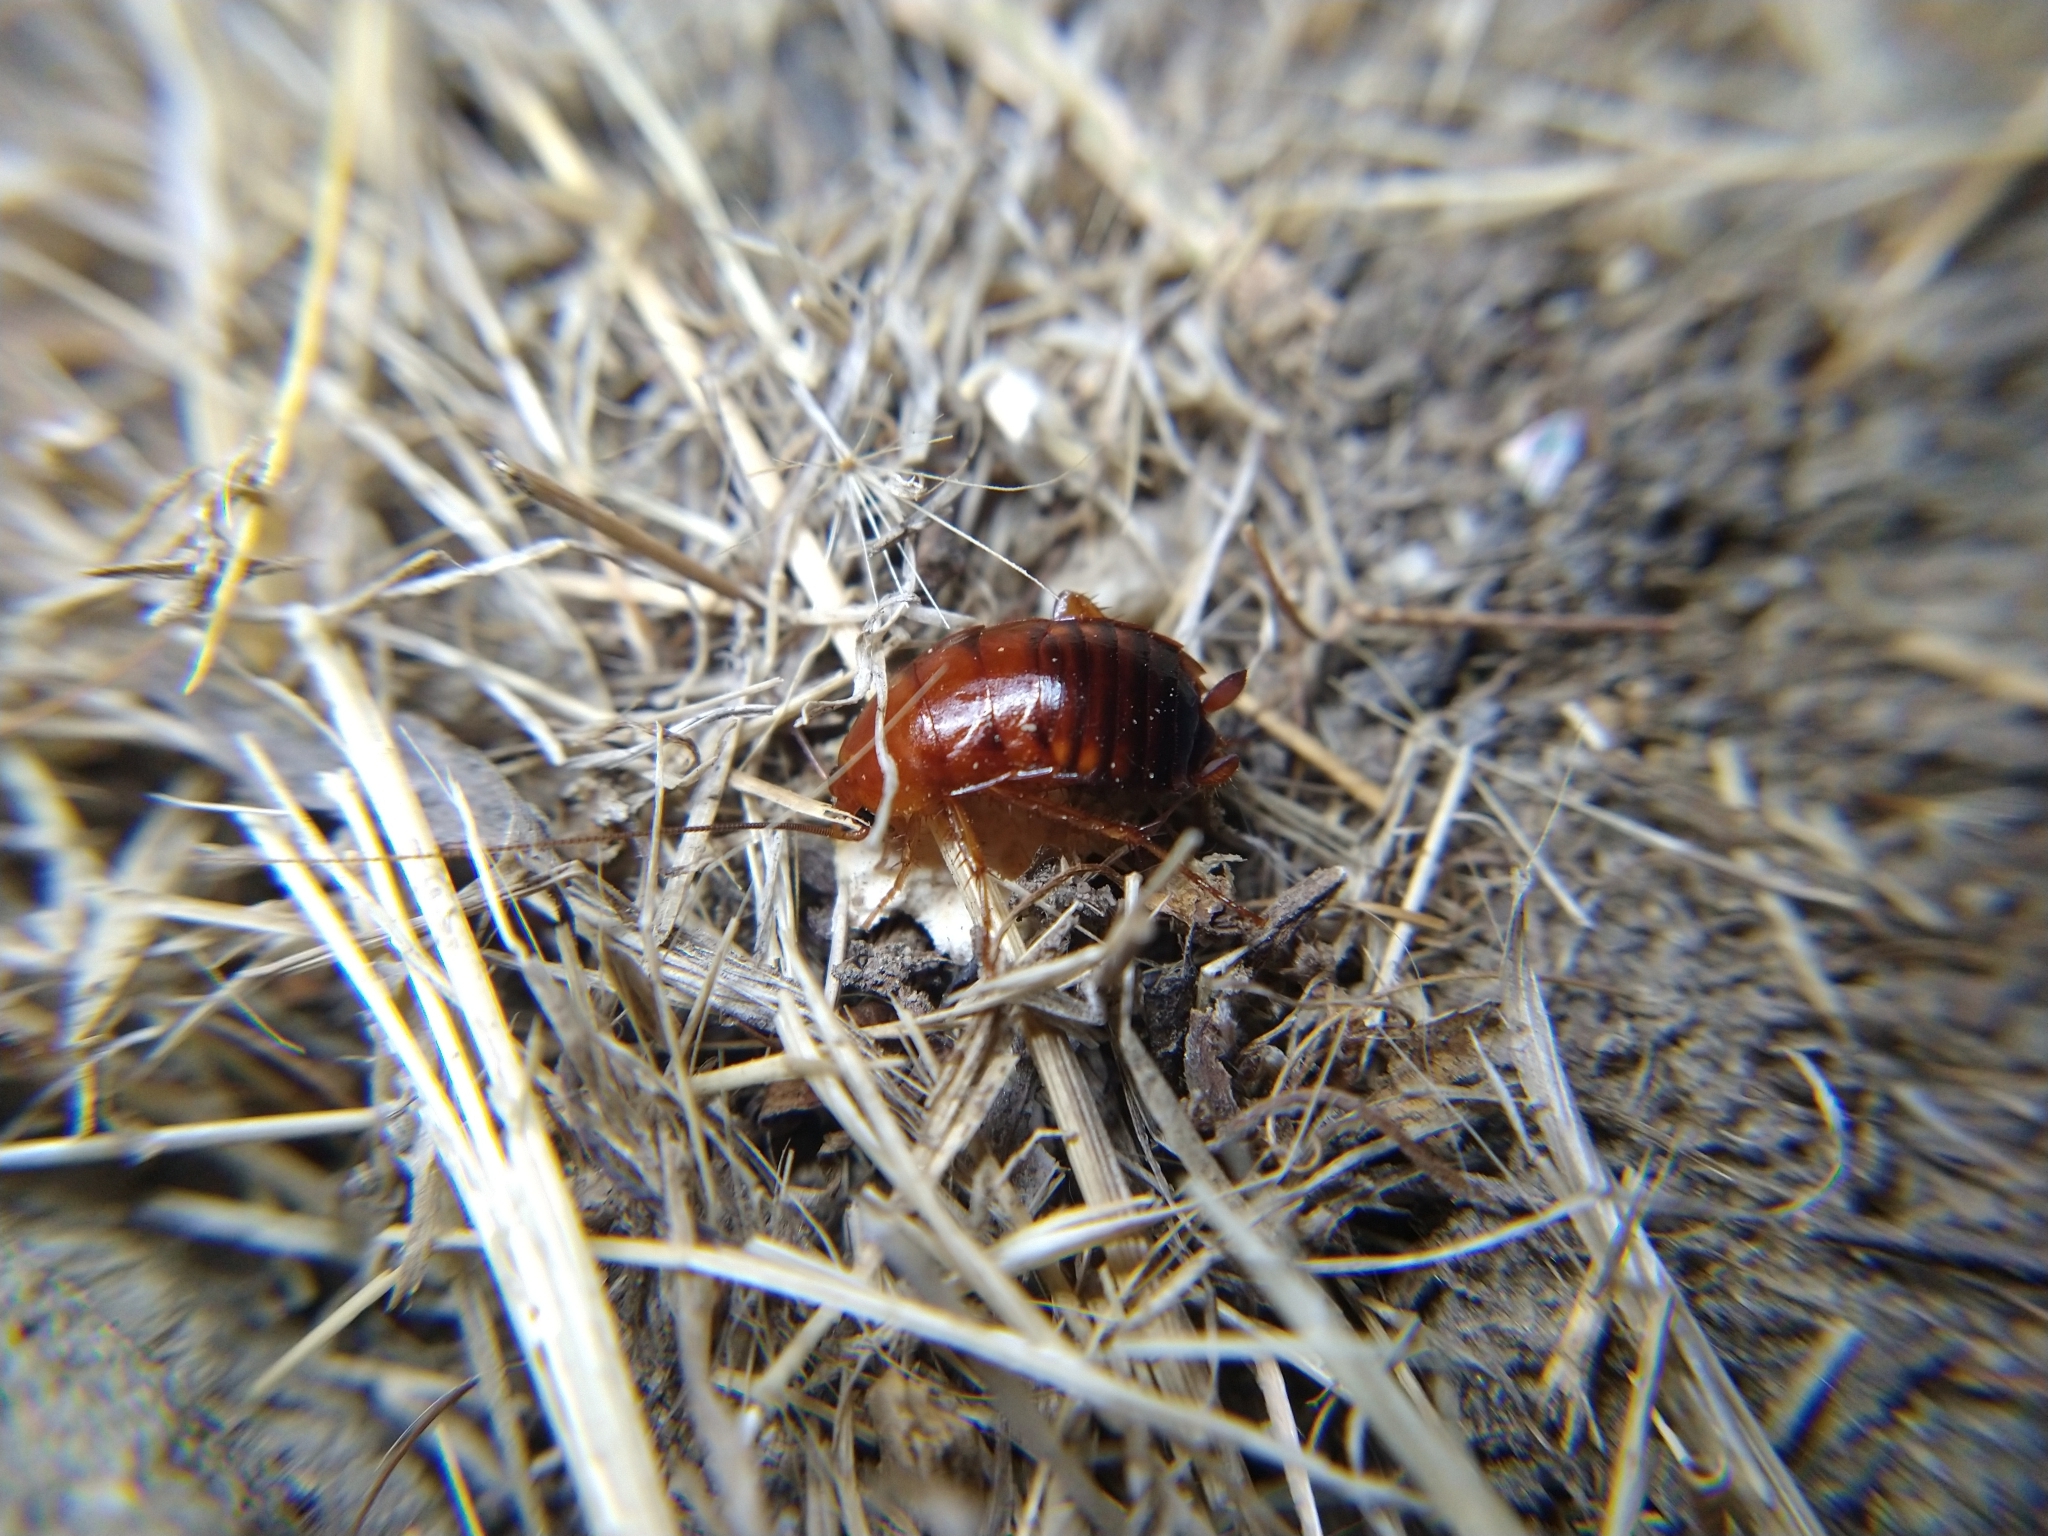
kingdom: Animalia
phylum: Arthropoda
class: Insecta
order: Blattodea
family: Blattidae
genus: Periplaneta
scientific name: Periplaneta lateralis
